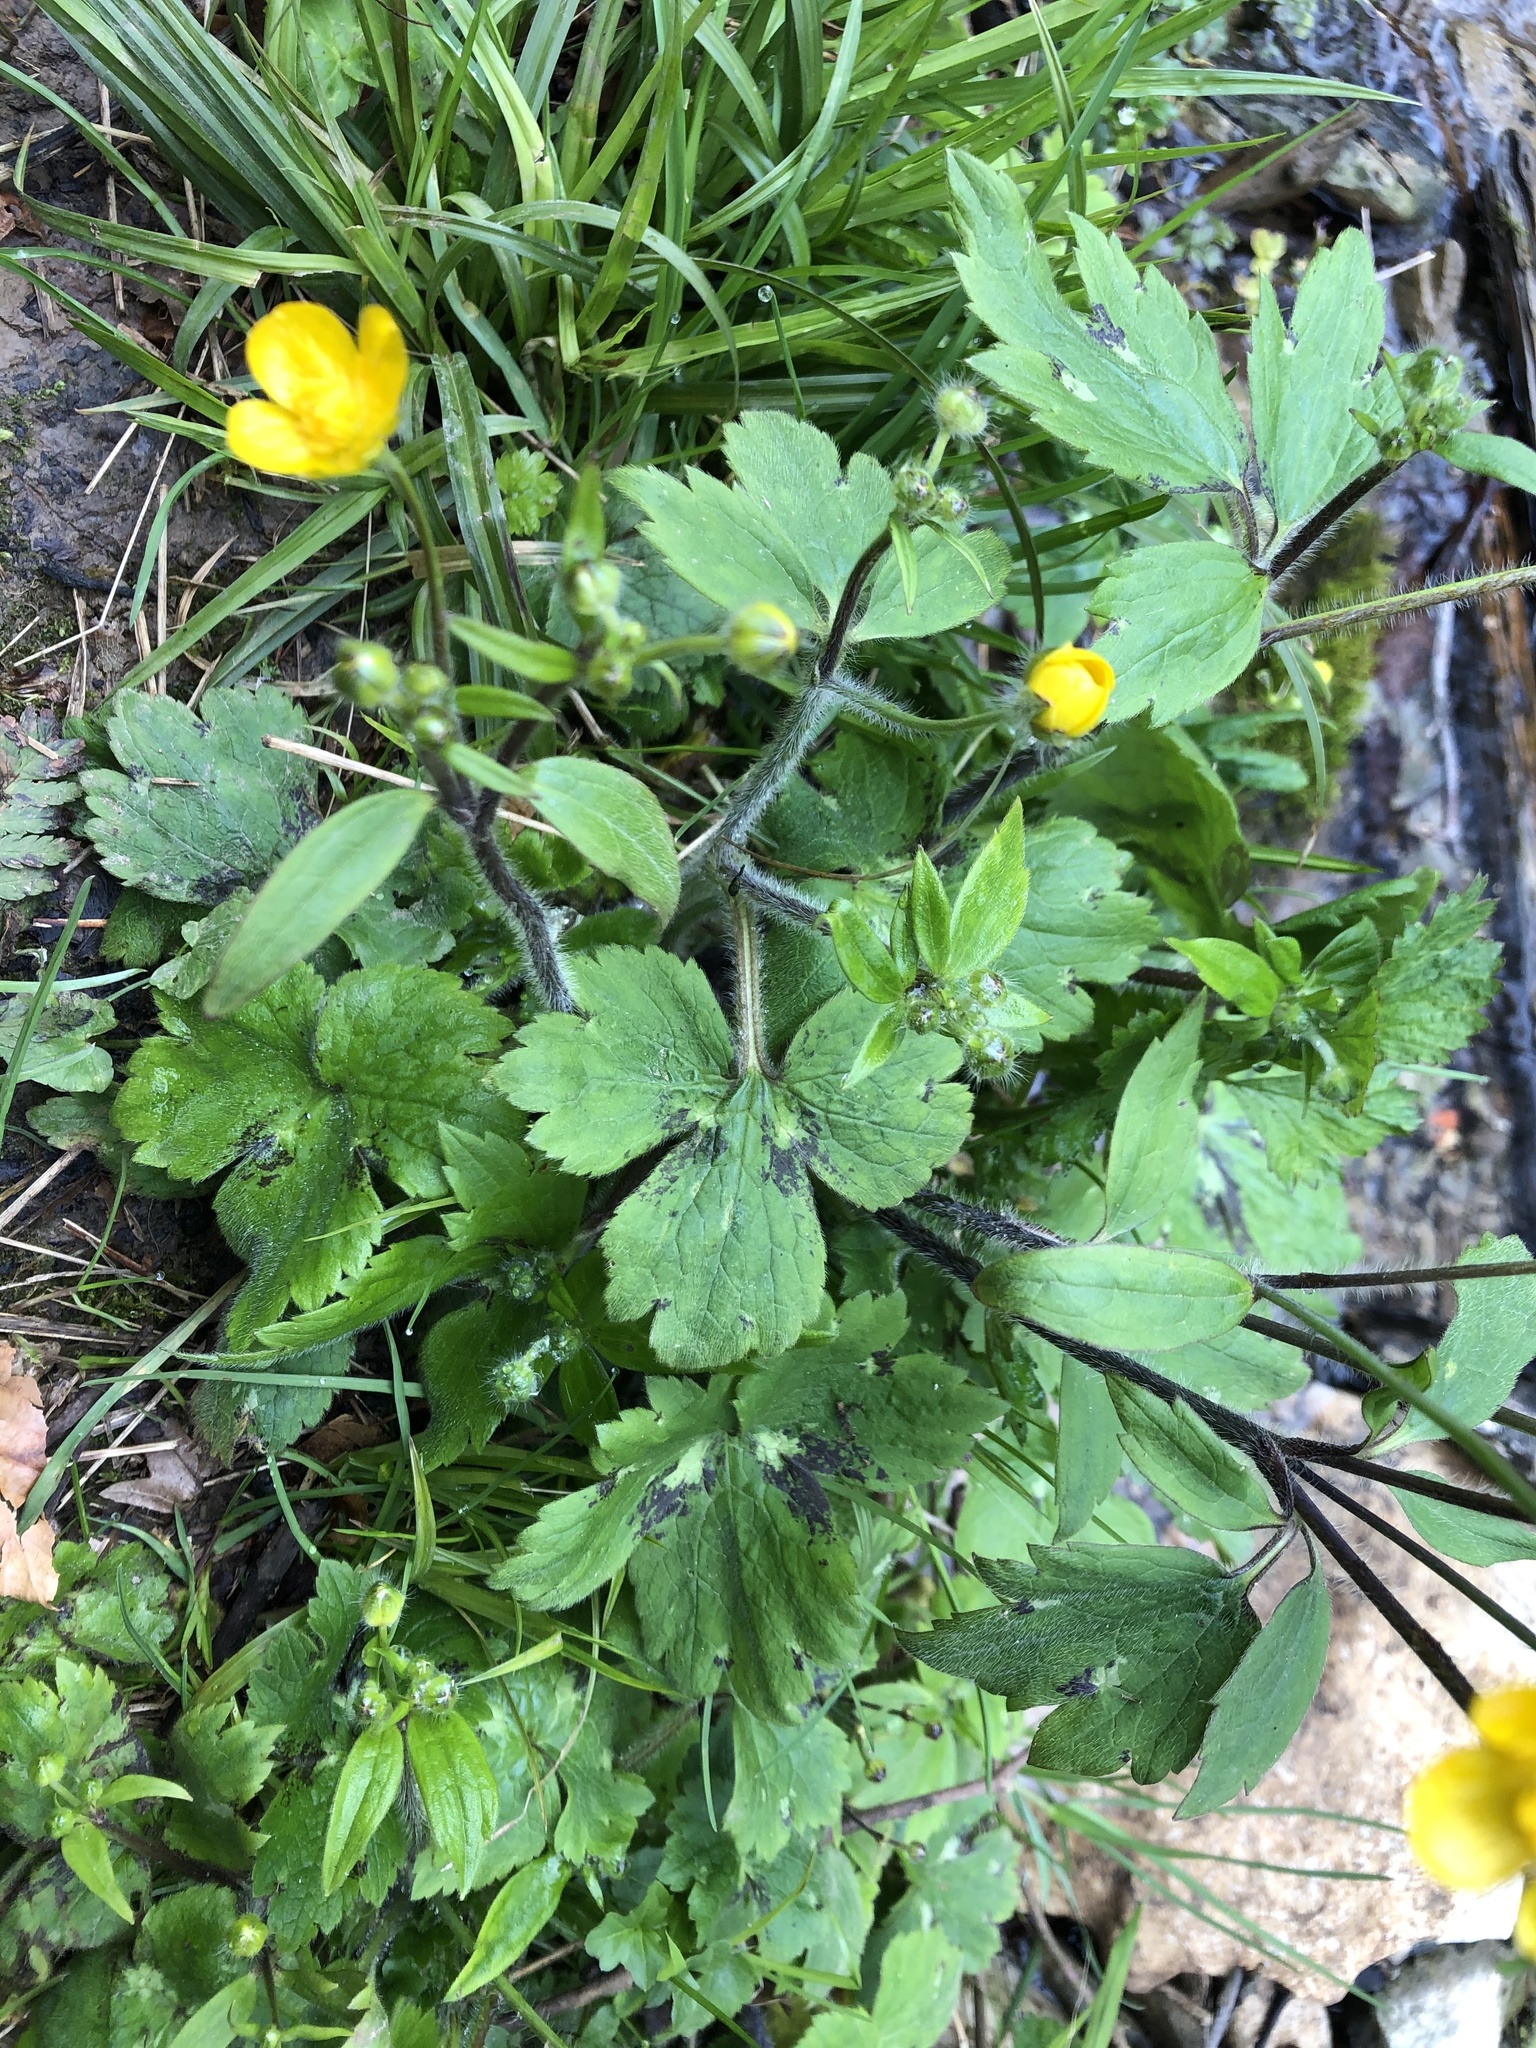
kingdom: Plantae
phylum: Tracheophyta
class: Magnoliopsida
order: Ranunculales
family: Ranunculaceae
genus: Ranunculus
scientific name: Ranunculus lanuginosus
